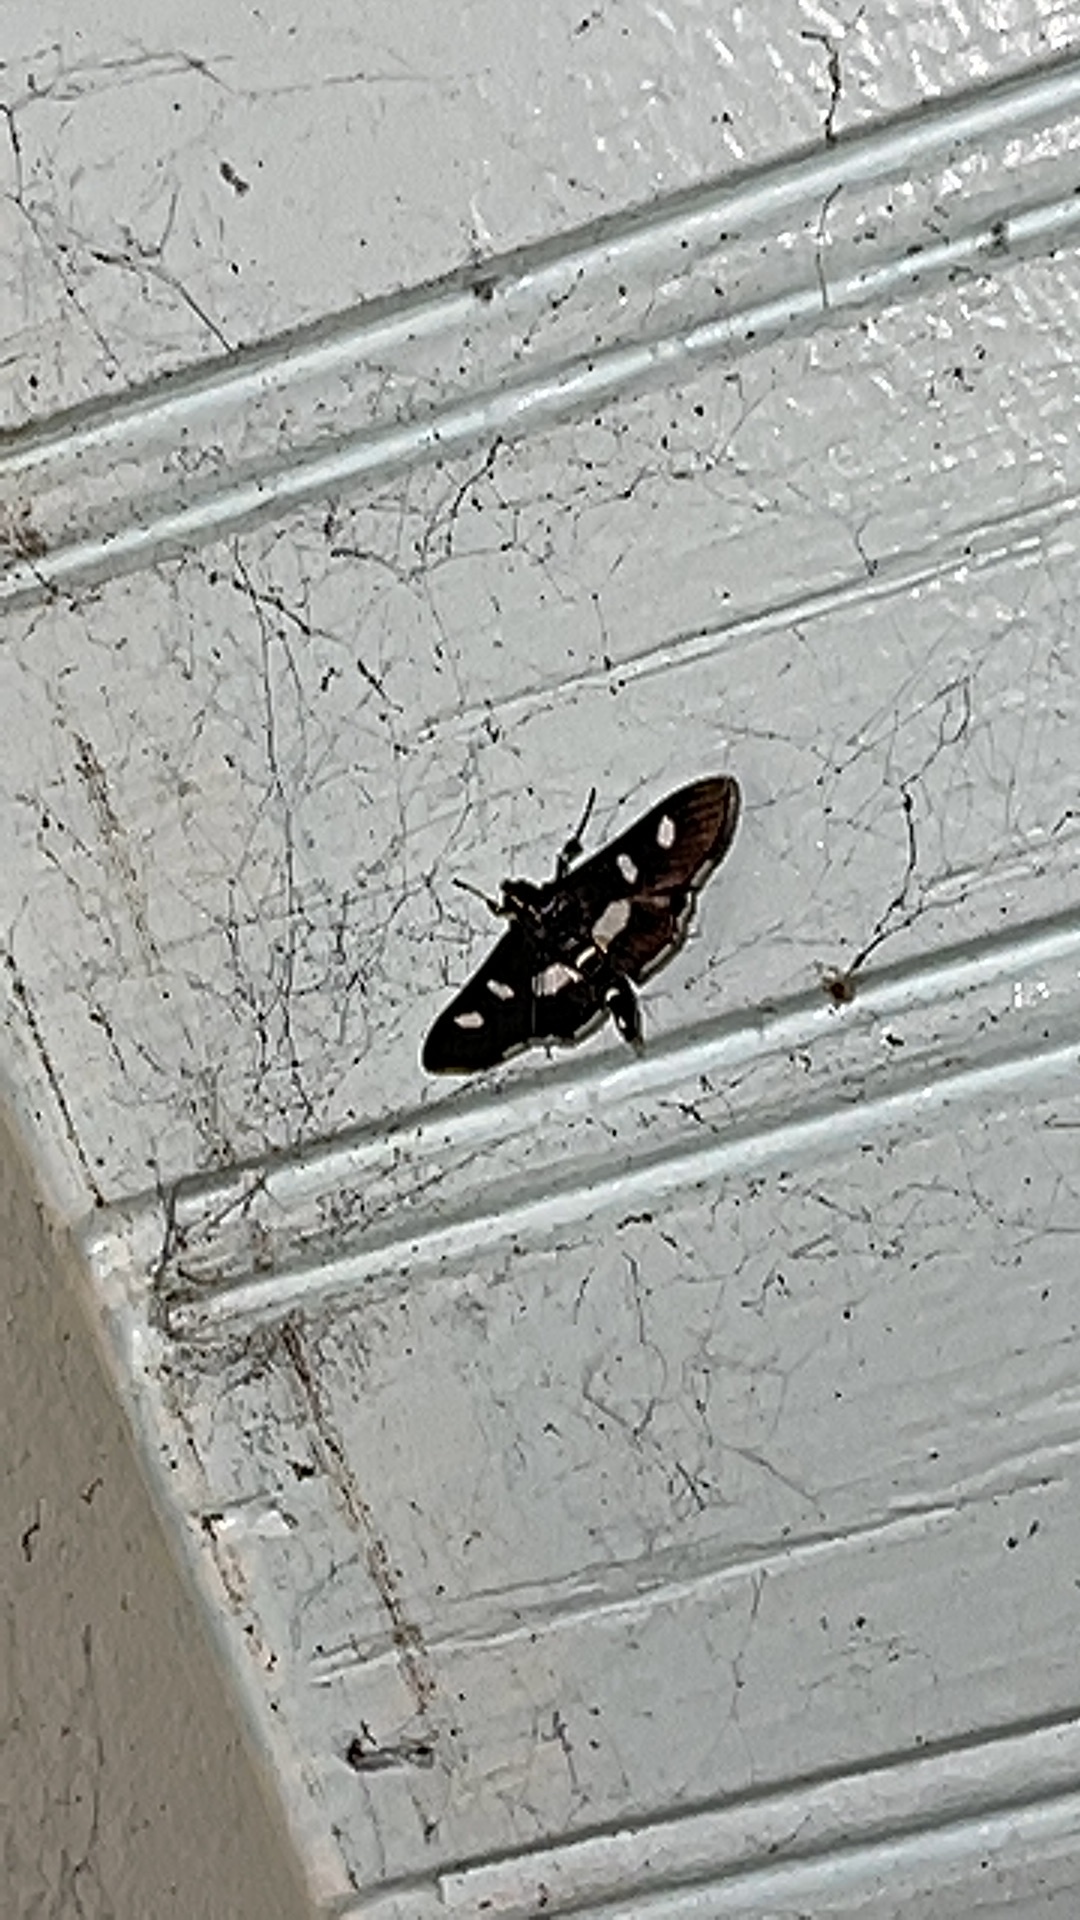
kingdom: Animalia
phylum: Arthropoda
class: Insecta
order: Lepidoptera
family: Crambidae
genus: Desmia
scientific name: Desmia
